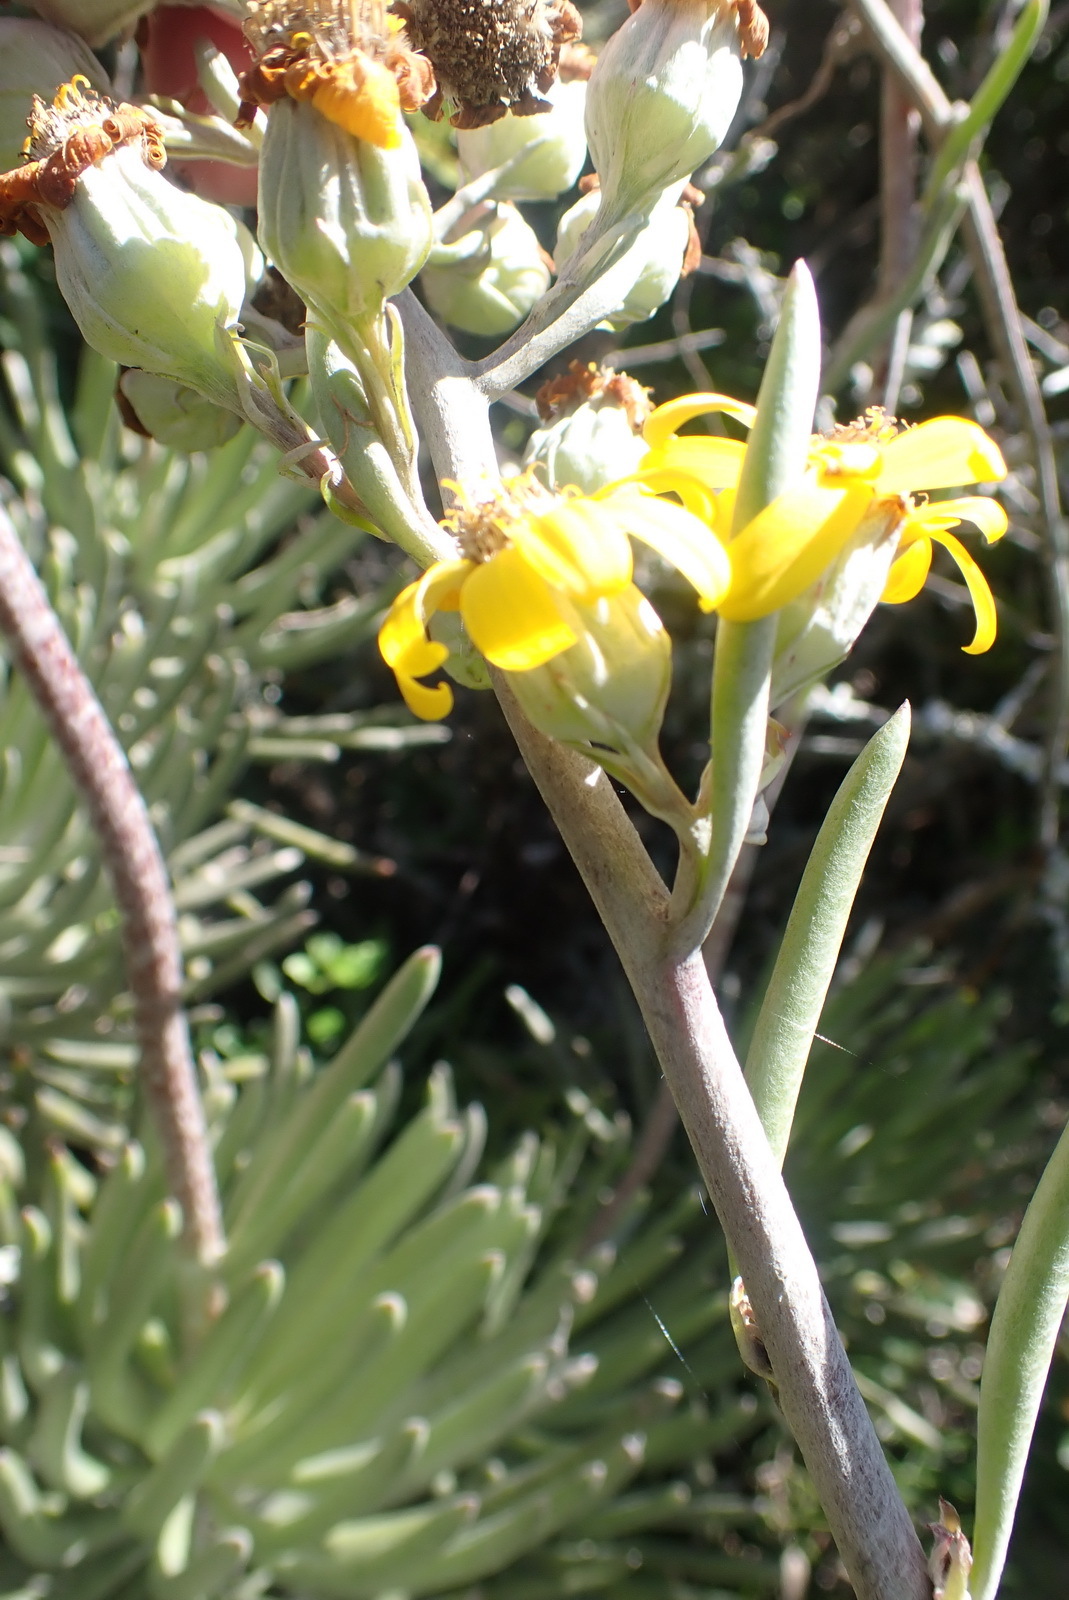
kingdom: Plantae
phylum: Tracheophyta
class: Magnoliopsida
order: Asterales
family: Asteraceae
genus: Caputia
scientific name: Caputia pyramidata
